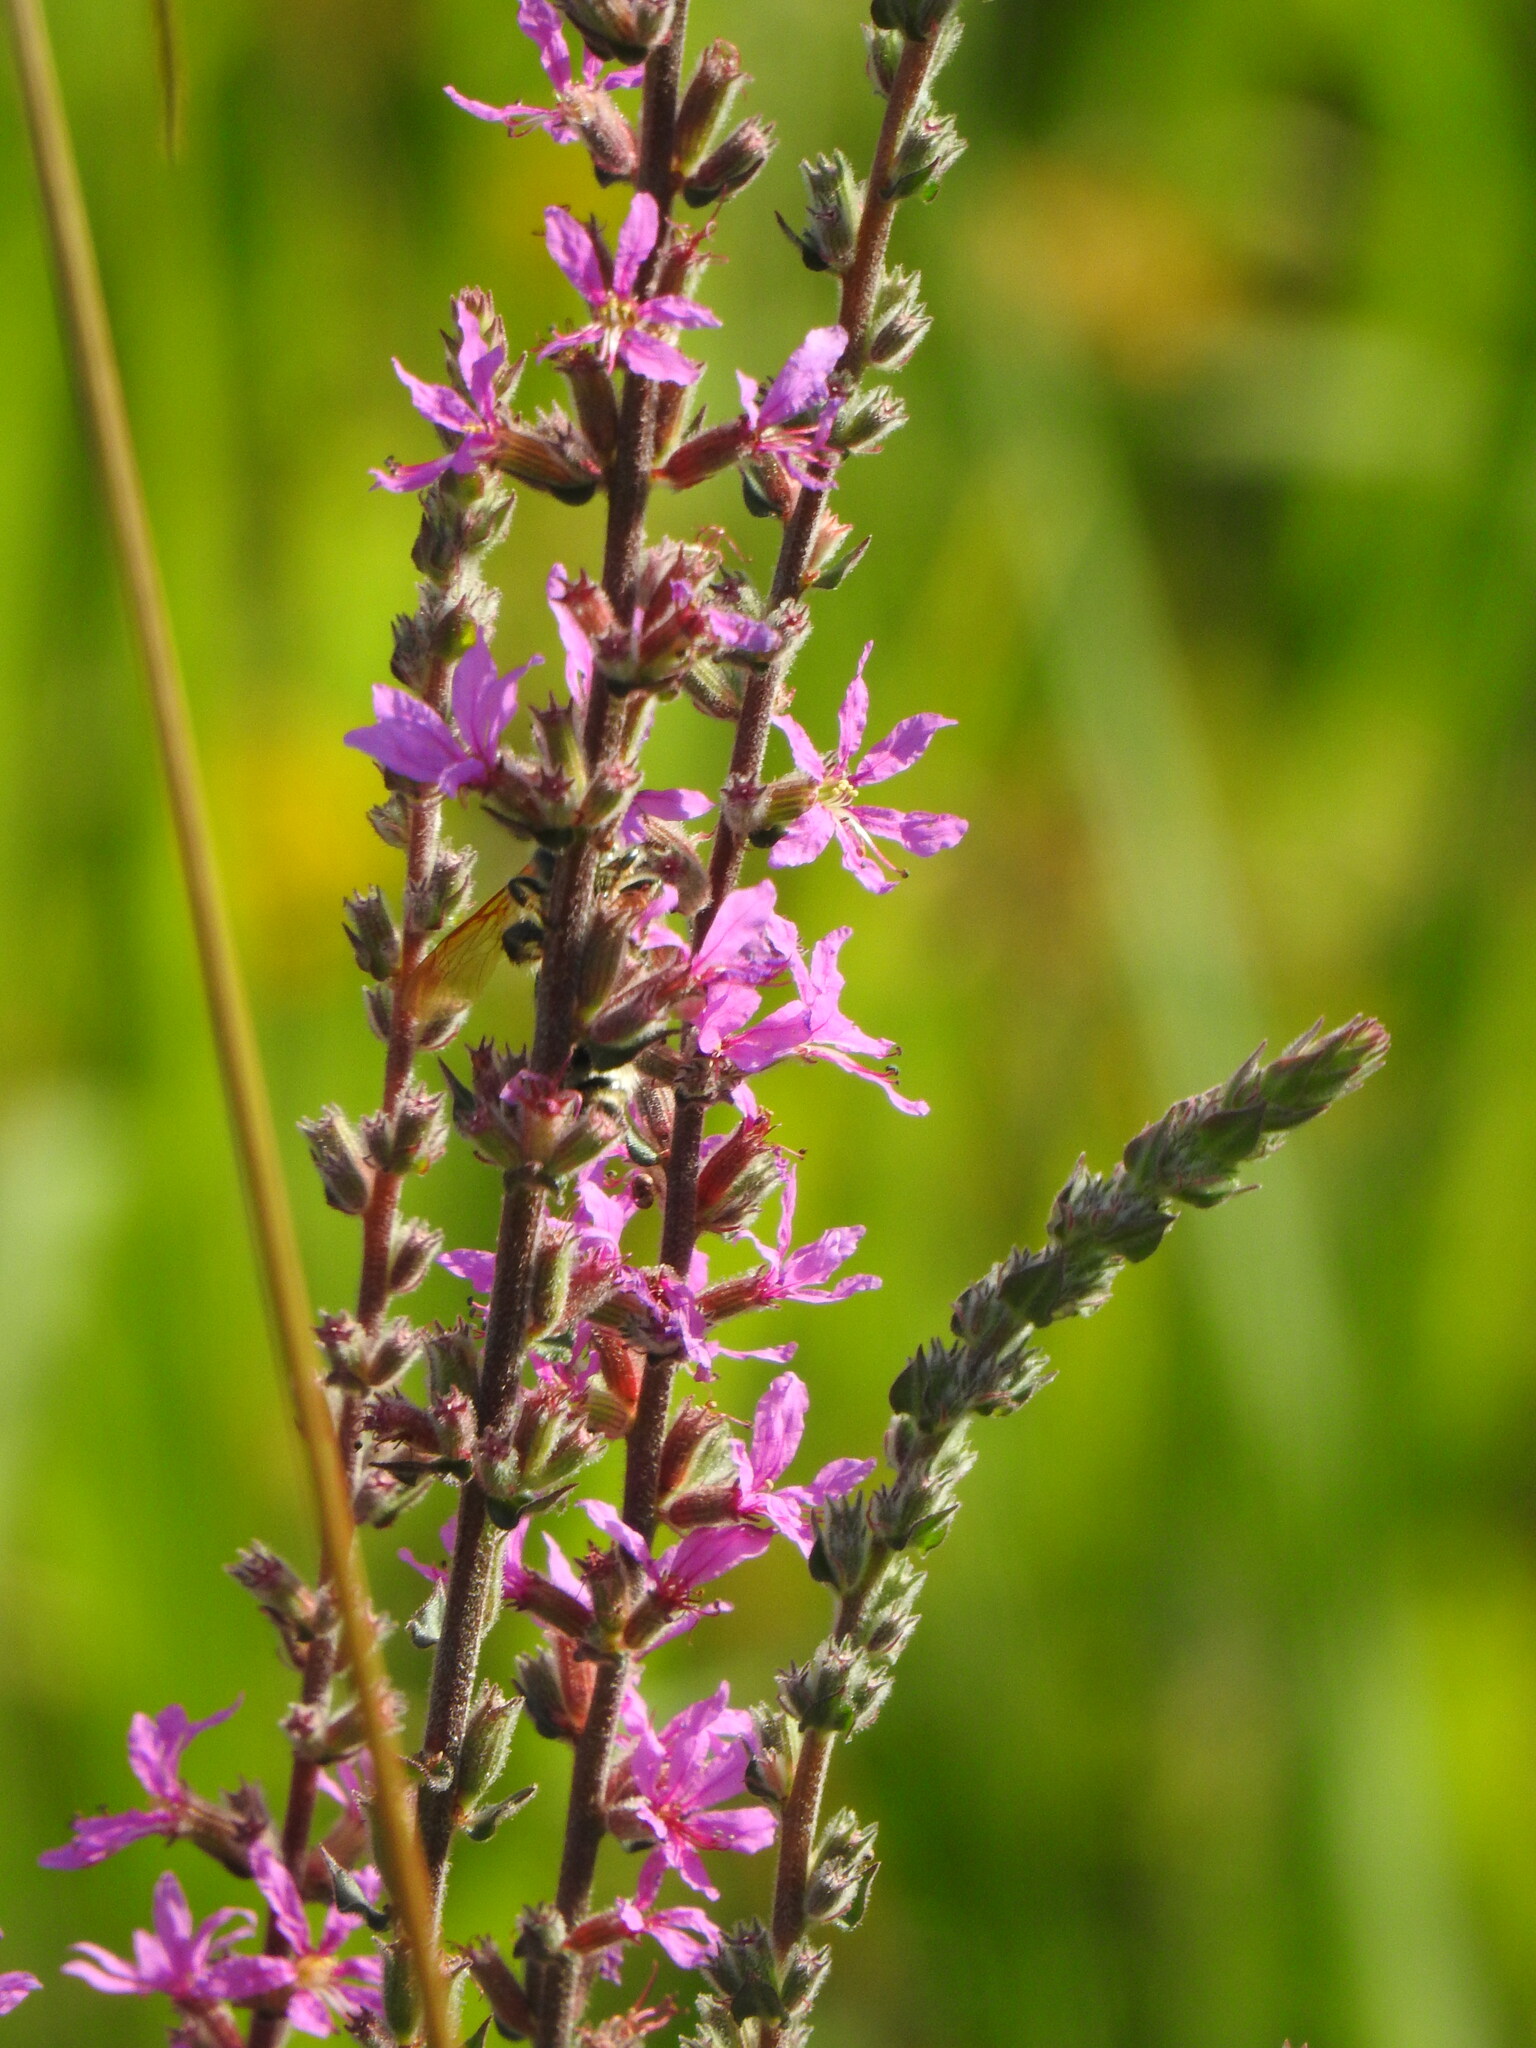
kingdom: Plantae
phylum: Tracheophyta
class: Magnoliopsida
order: Myrtales
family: Lythraceae
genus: Lythrum
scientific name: Lythrum salicaria
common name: Purple loosestrife
